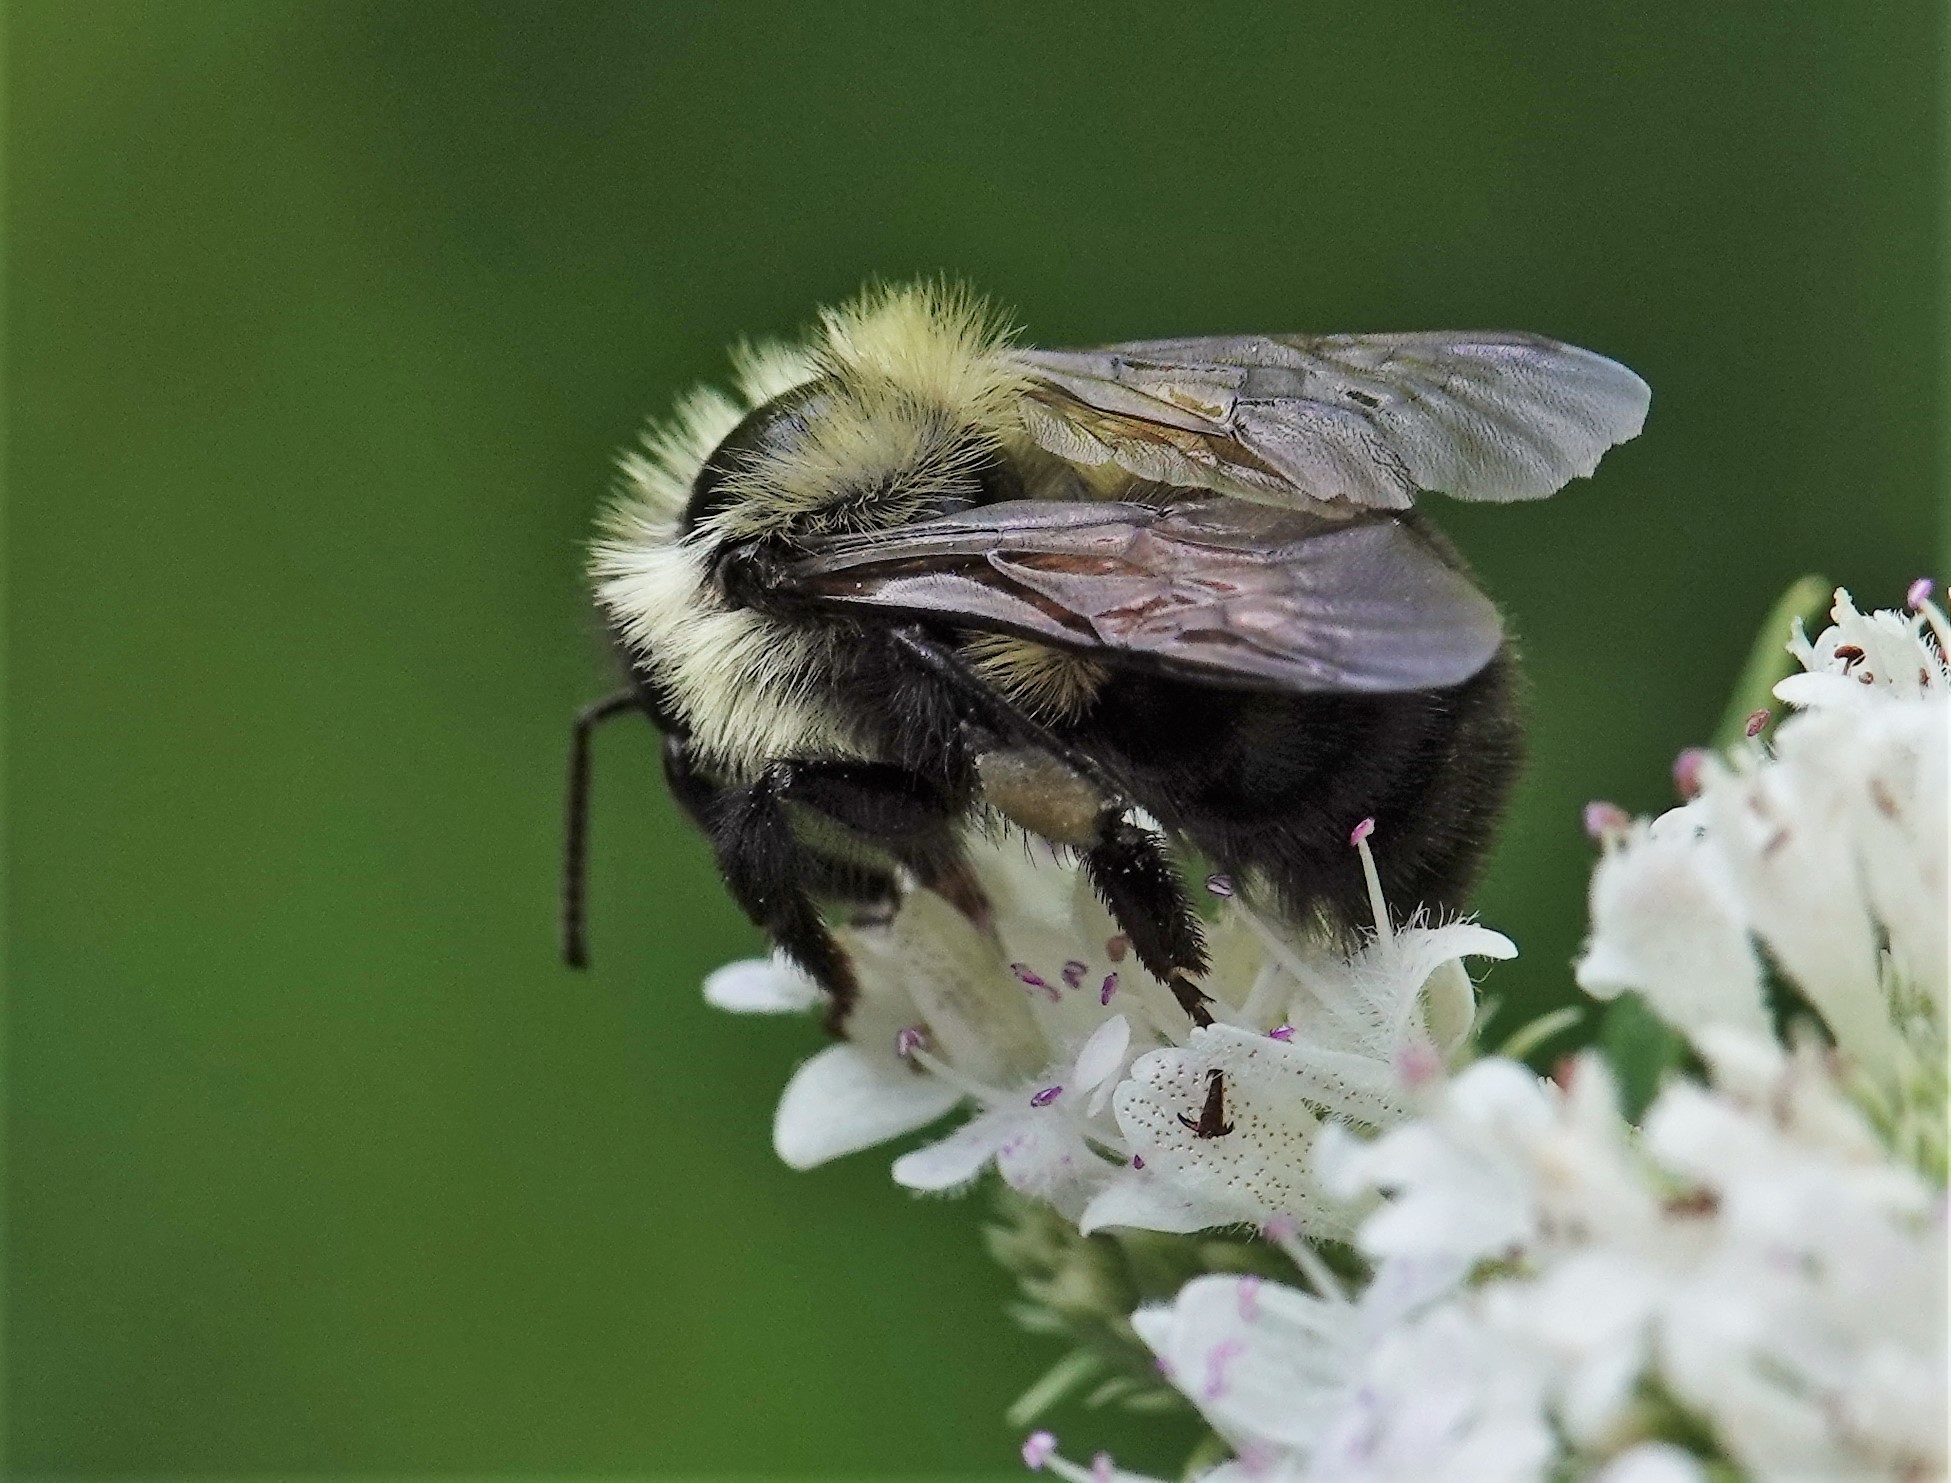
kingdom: Animalia
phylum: Arthropoda
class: Insecta
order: Hymenoptera
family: Apidae
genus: Bombus
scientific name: Bombus bimaculatus
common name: Two-spotted bumble bee
